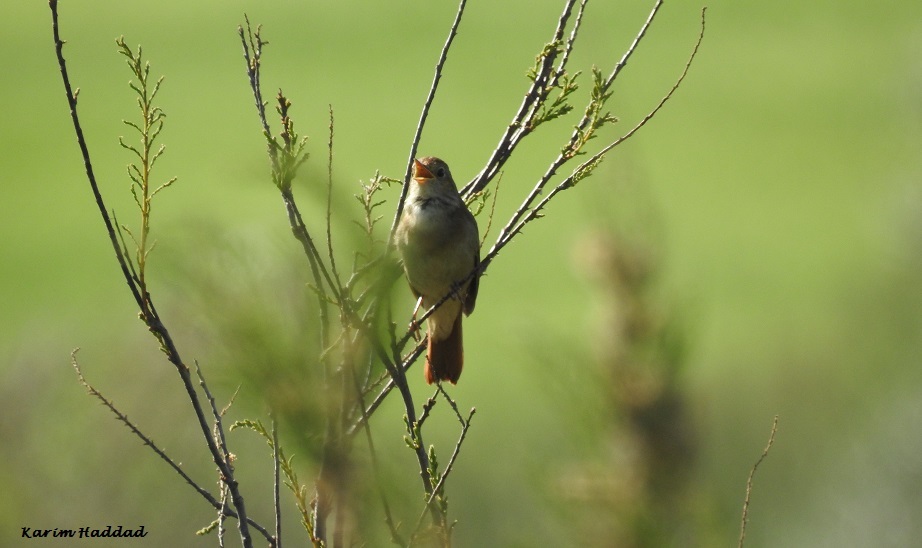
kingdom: Animalia
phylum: Chordata
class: Aves
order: Passeriformes
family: Muscicapidae
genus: Luscinia
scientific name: Luscinia megarhynchos
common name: Common nightingale
